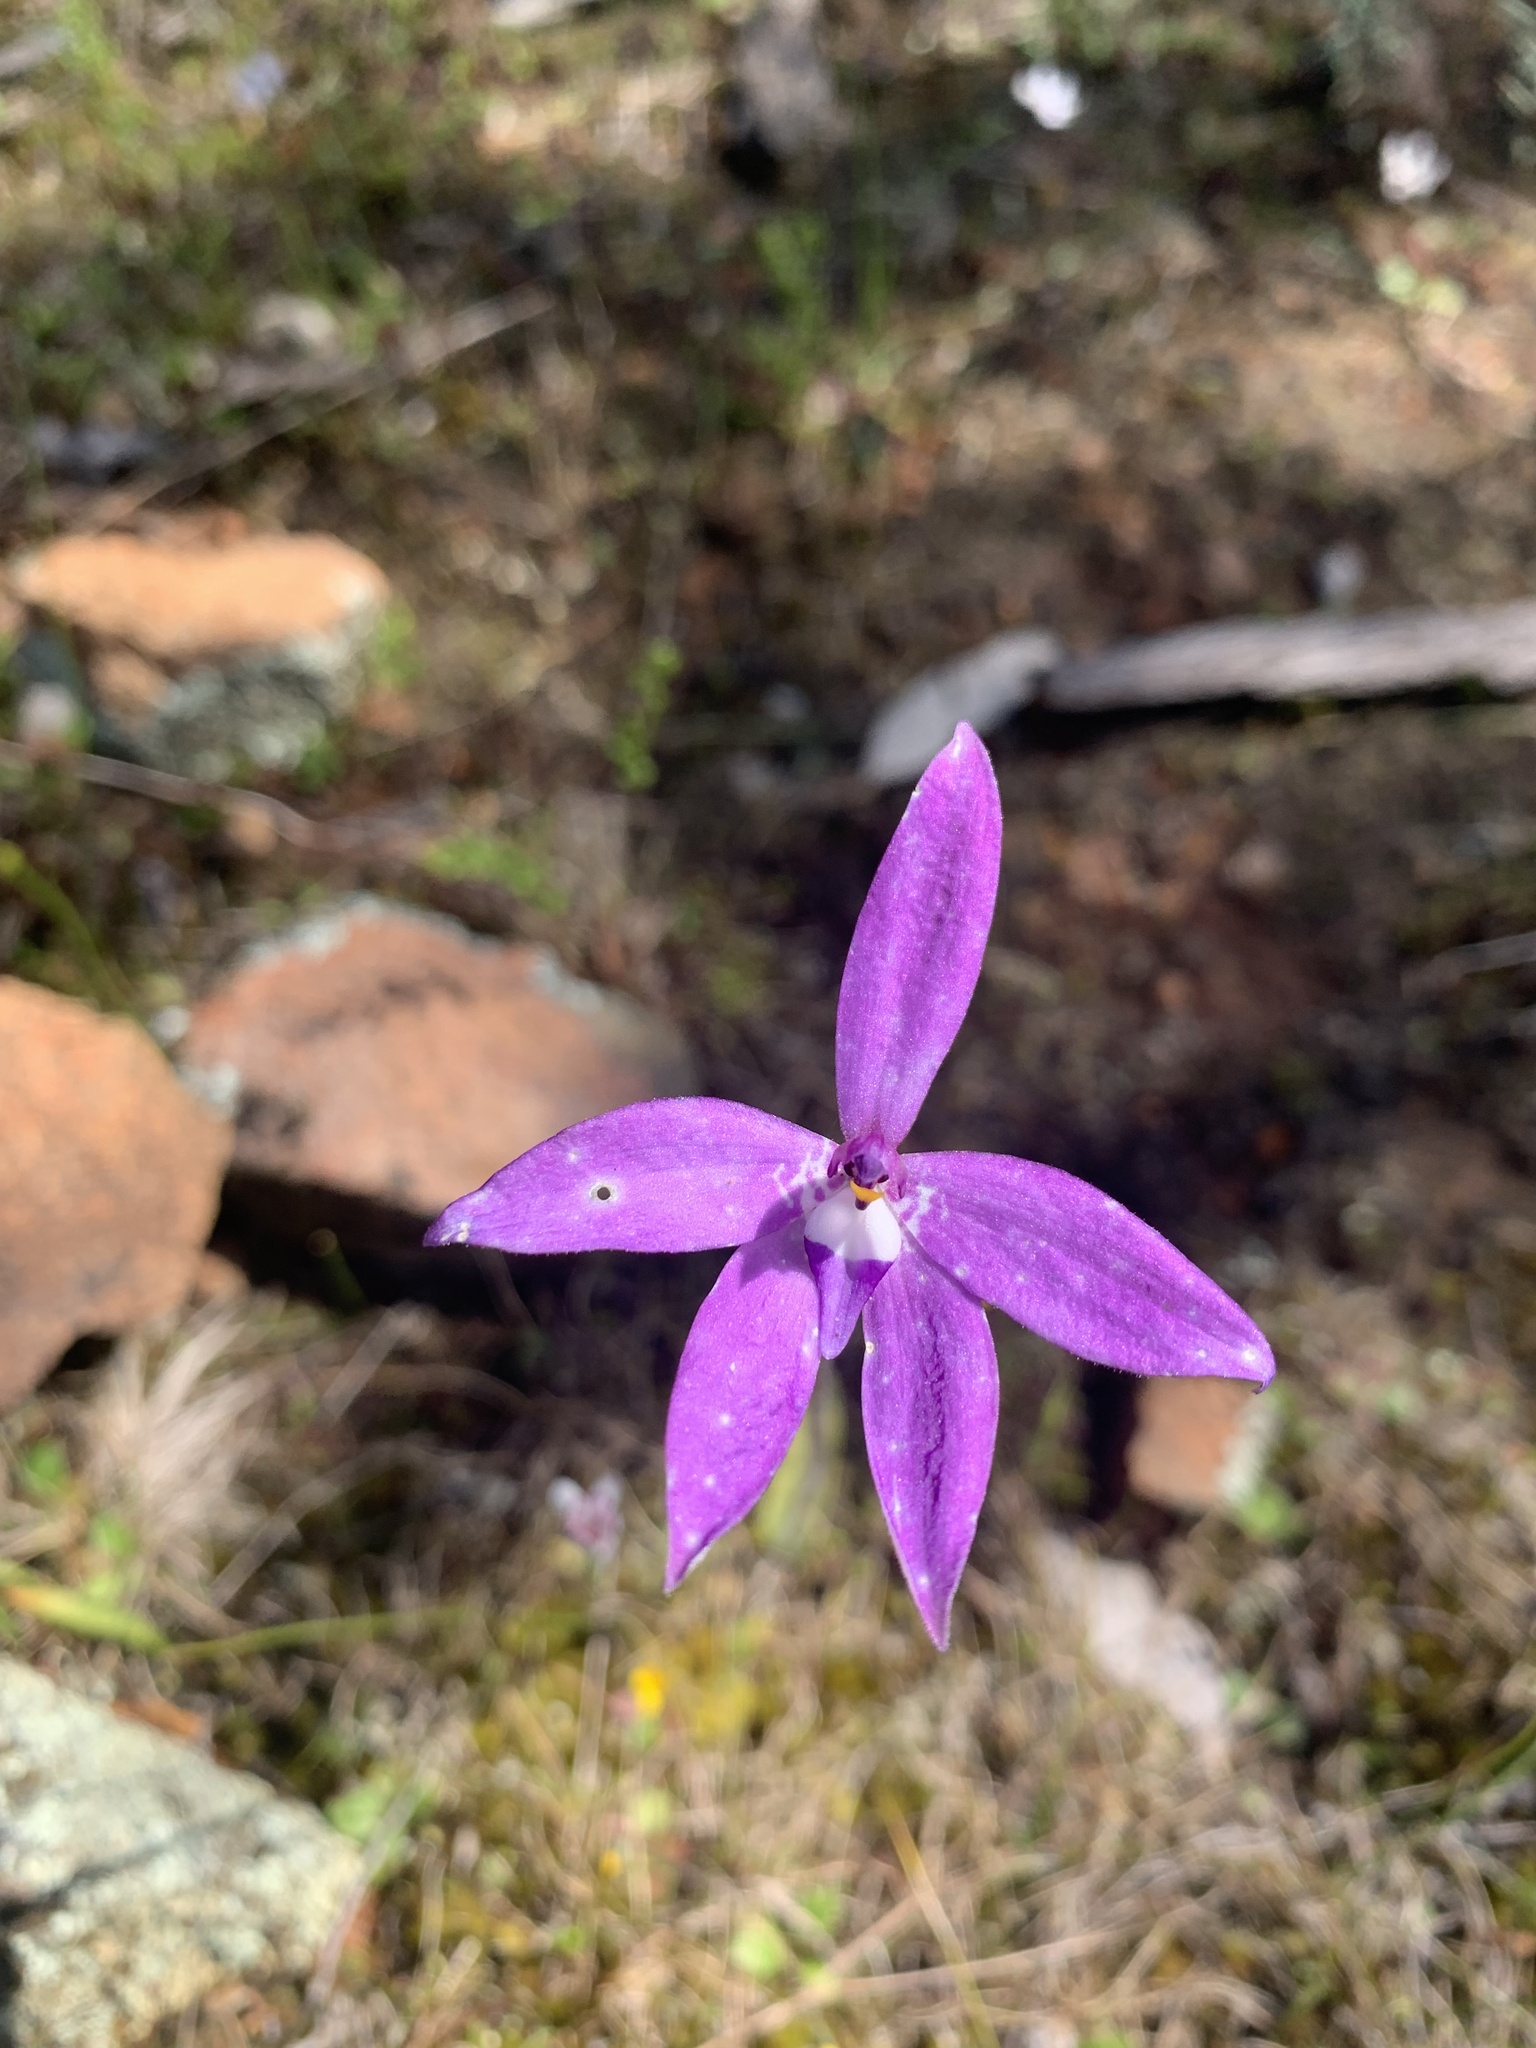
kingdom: Plantae
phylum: Tracheophyta
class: Liliopsida
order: Asparagales
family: Orchidaceae
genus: Caladenia
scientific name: Caladenia major
